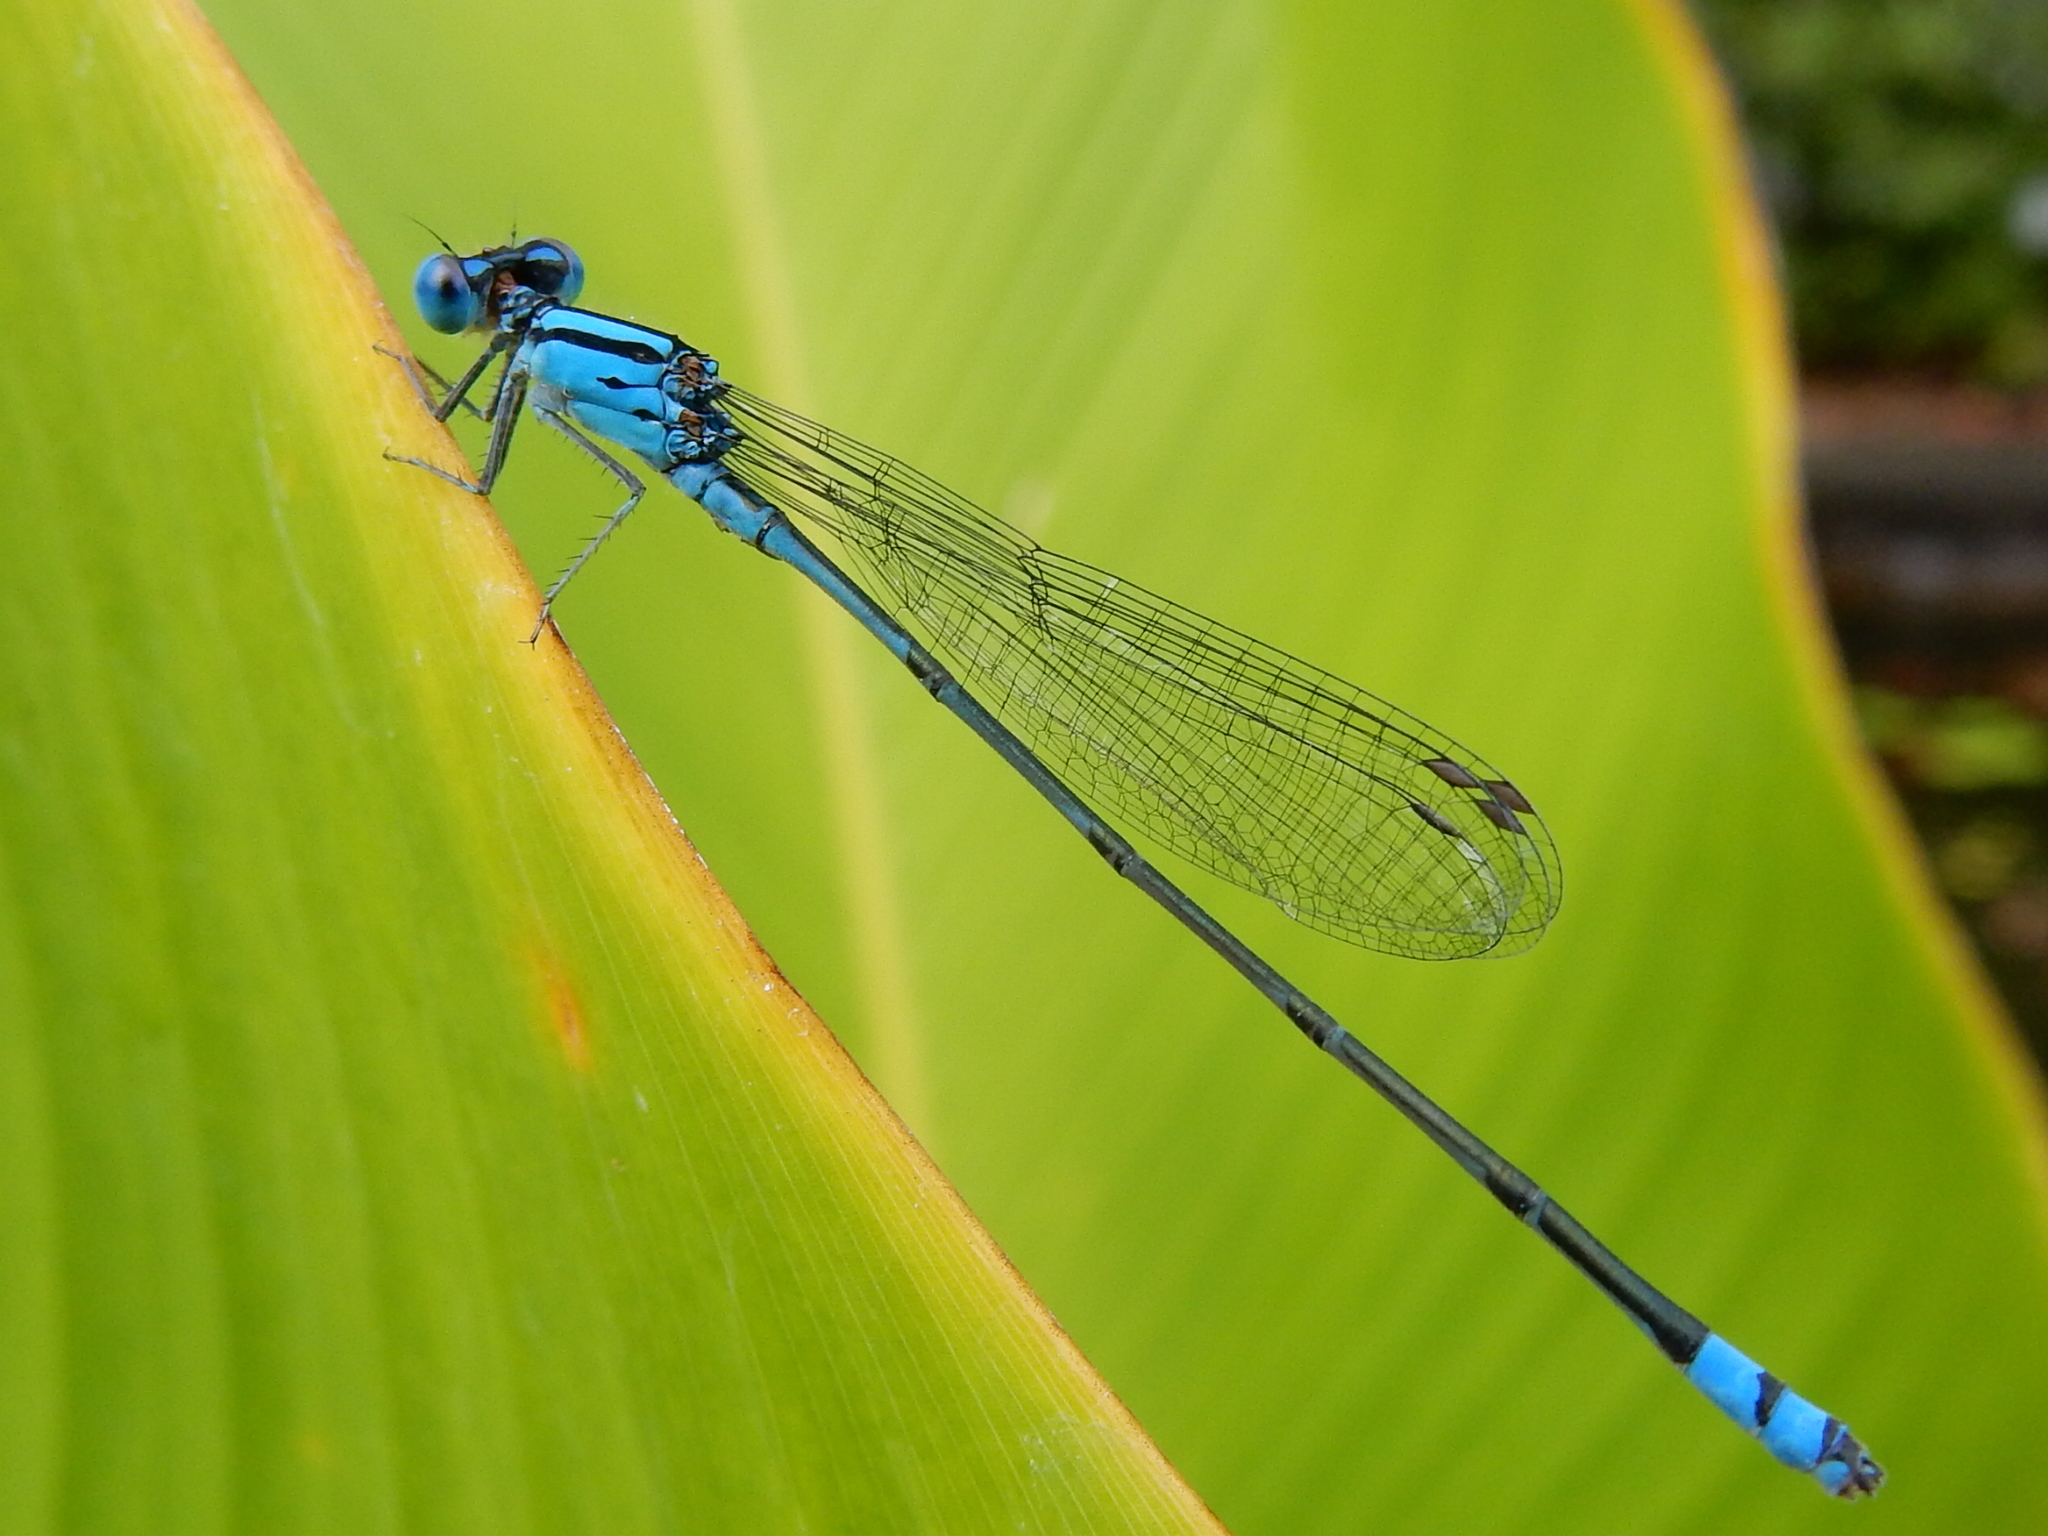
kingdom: Animalia
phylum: Arthropoda
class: Insecta
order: Odonata
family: Coenagrionidae
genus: Pseudagrion
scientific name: Pseudagrion microcephalum
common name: Blue riverdamsel
